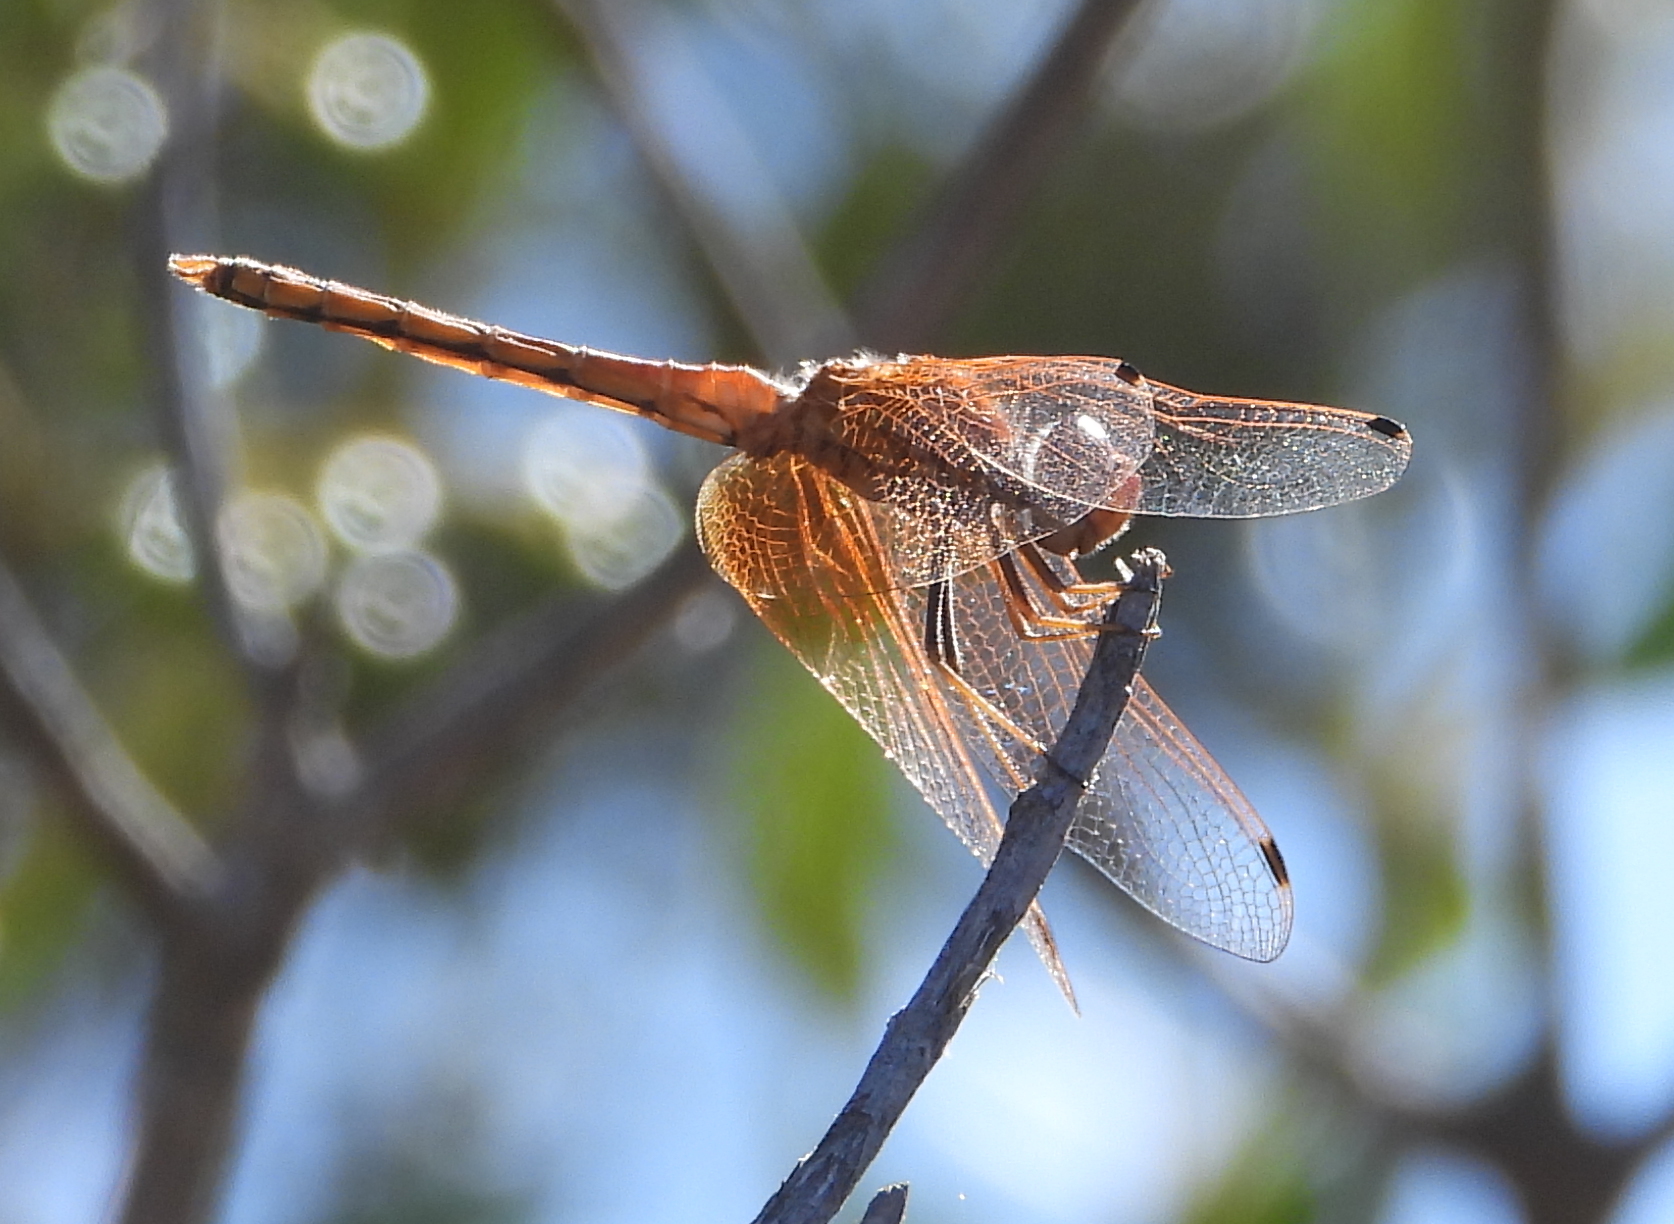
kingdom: Animalia
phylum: Arthropoda
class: Insecta
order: Odonata
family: Libellulidae
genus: Trithemis
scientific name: Trithemis arteriosa
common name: Red-veined dropwing
